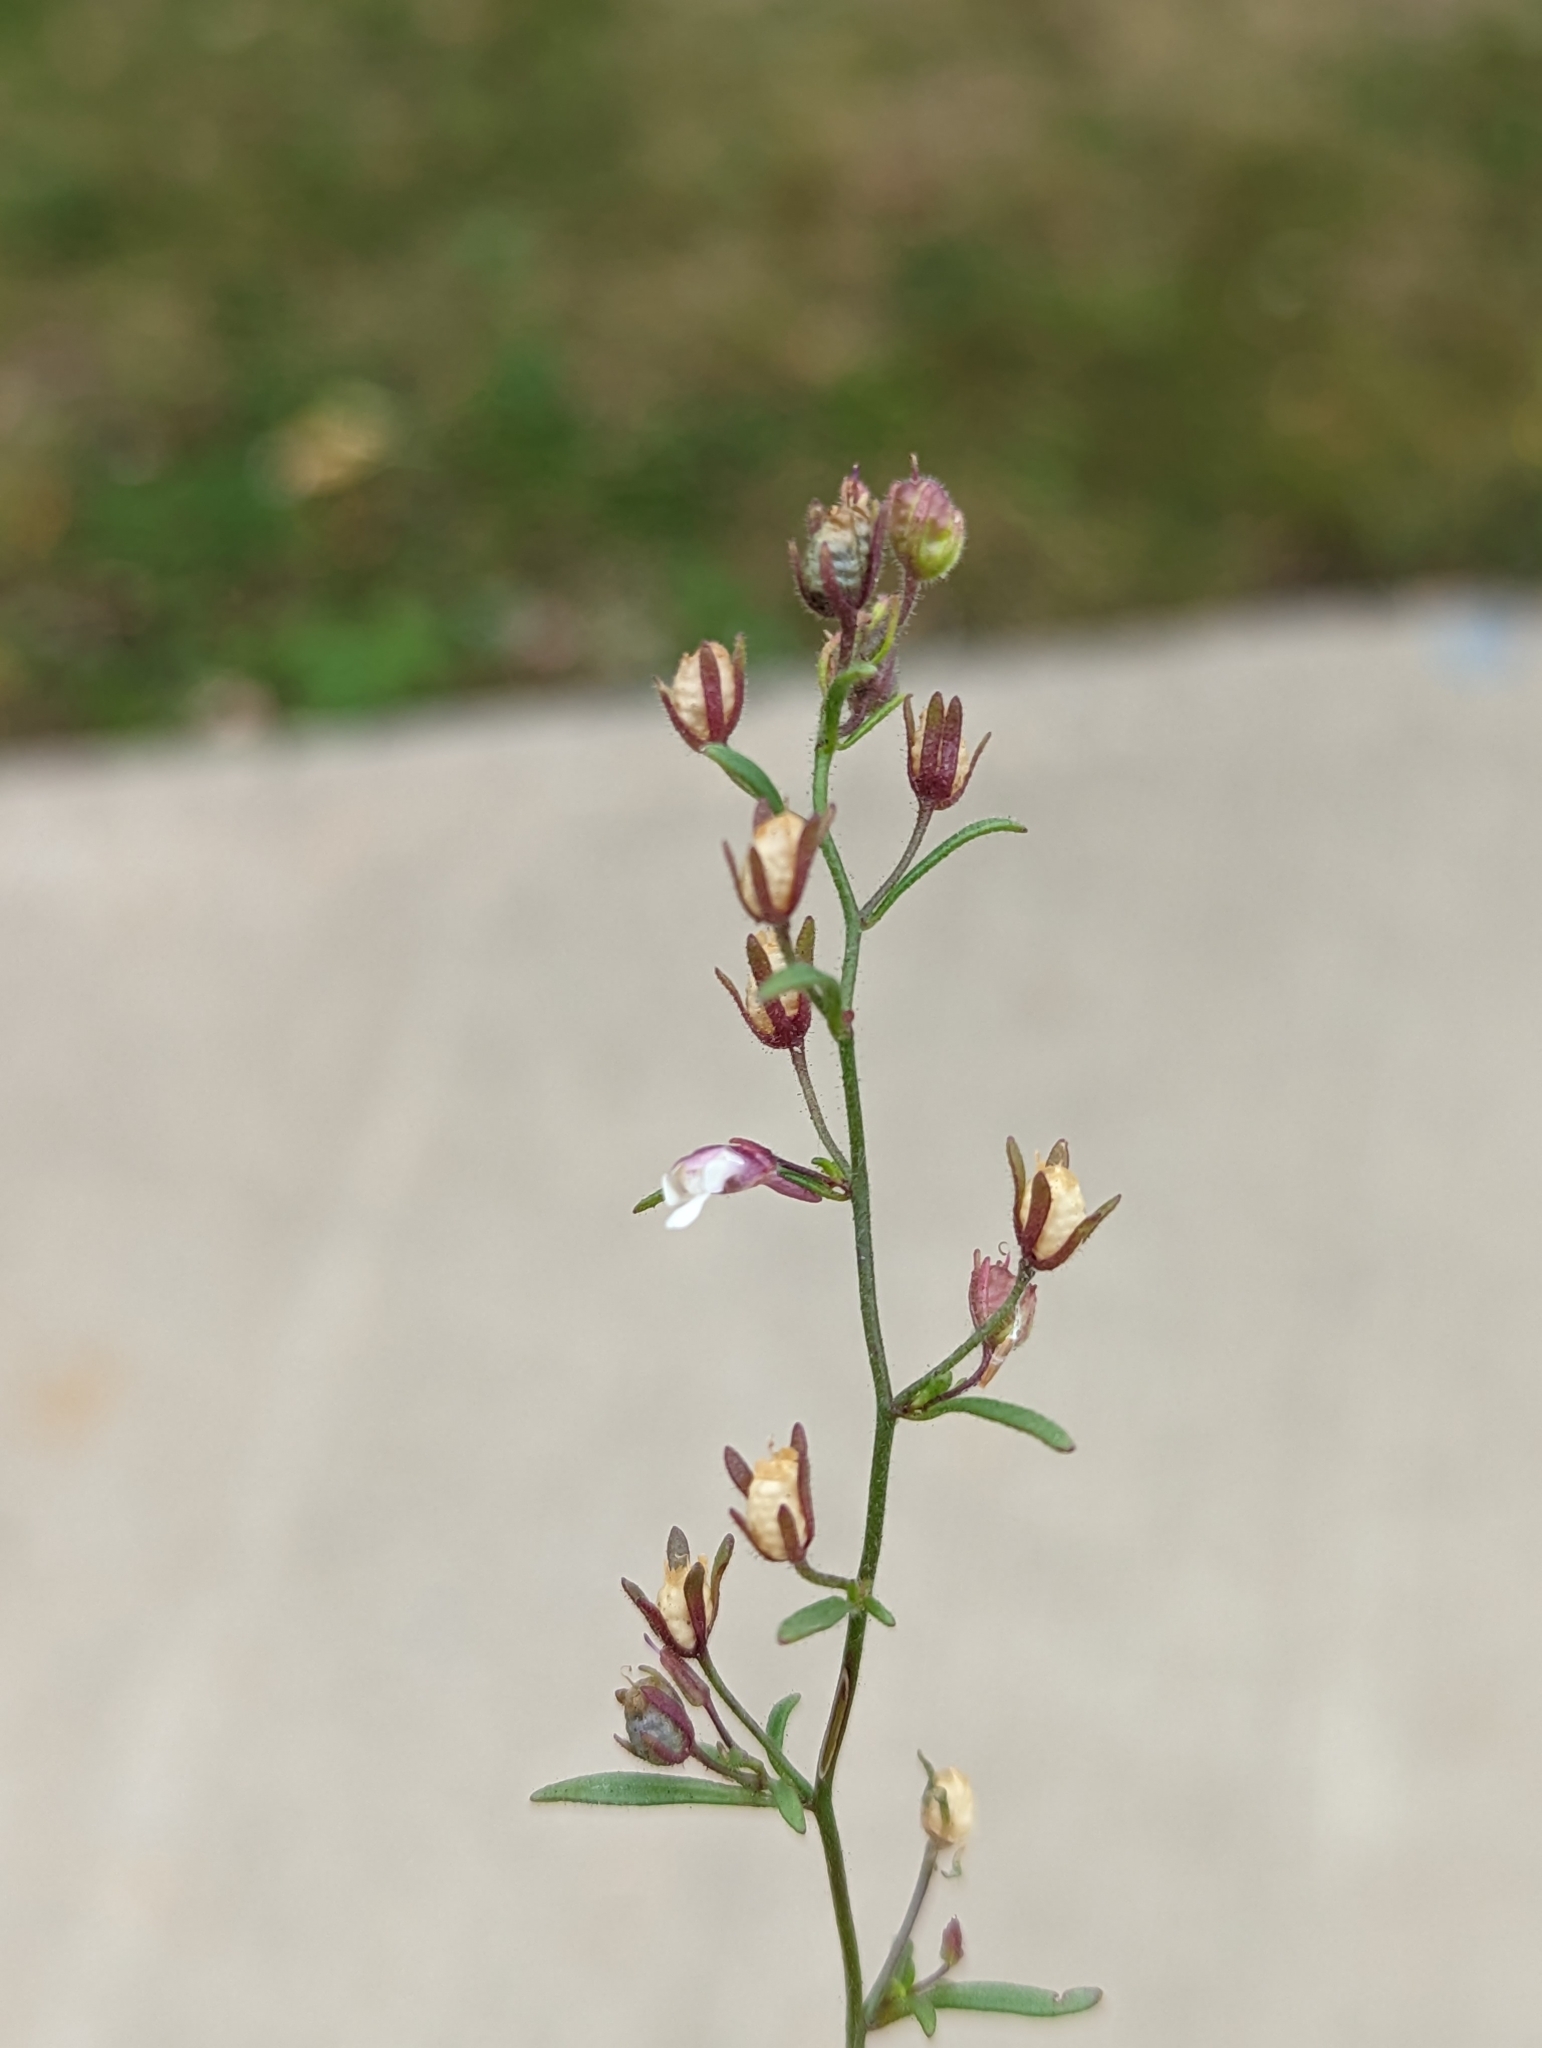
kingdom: Plantae
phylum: Tracheophyta
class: Magnoliopsida
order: Lamiales
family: Plantaginaceae
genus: Chaenorhinum
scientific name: Chaenorhinum minus
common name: Dwarf snapdragon
